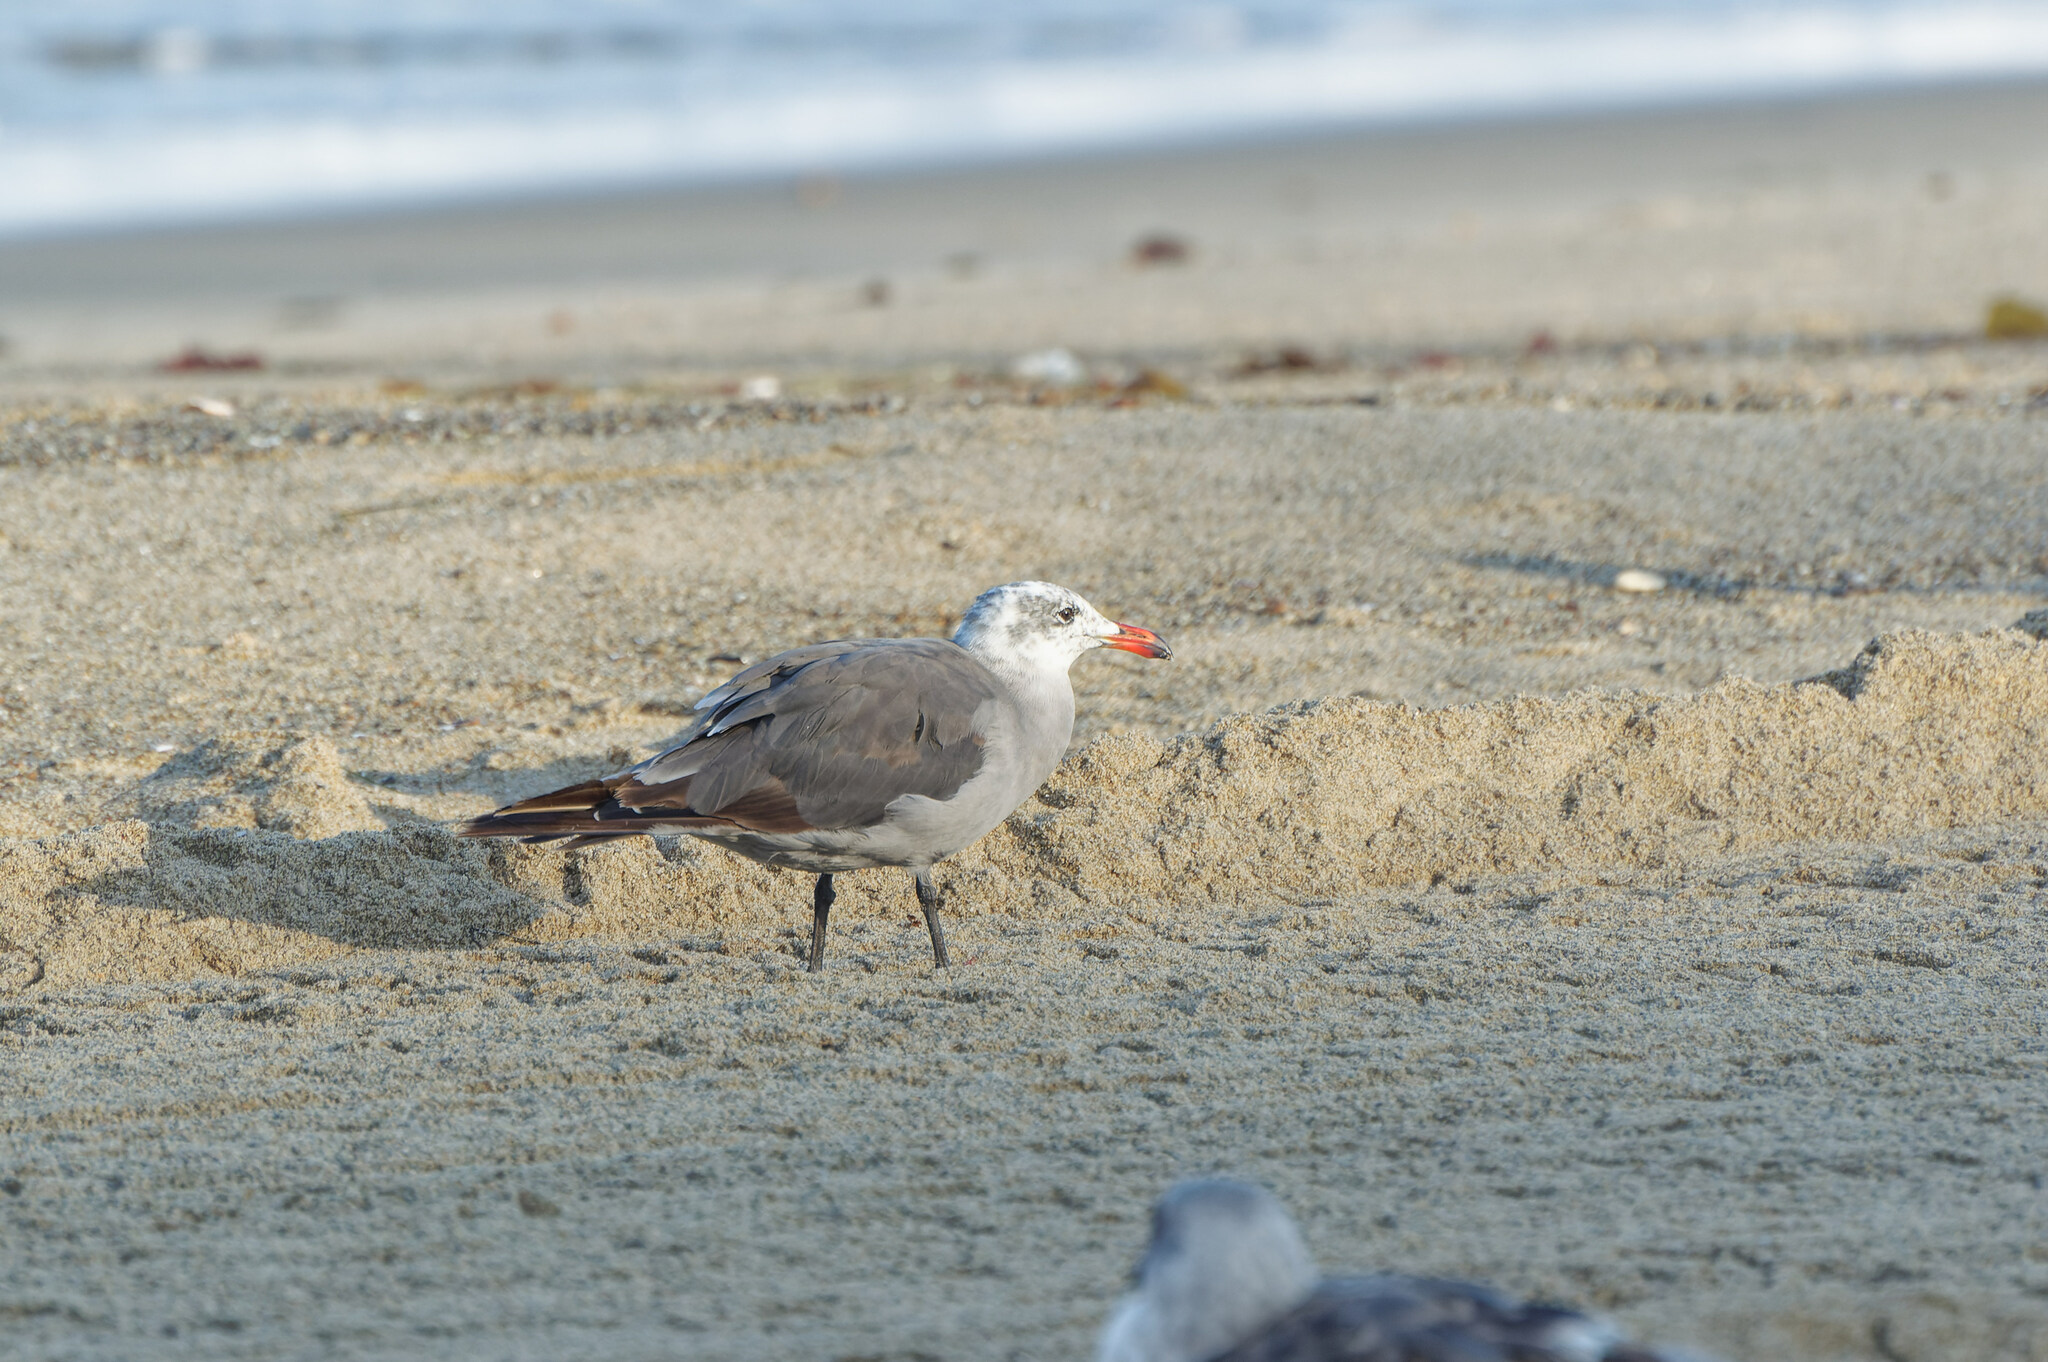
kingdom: Animalia
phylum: Chordata
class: Aves
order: Charadriiformes
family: Laridae
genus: Larus
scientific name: Larus heermanni
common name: Heermann's gull
